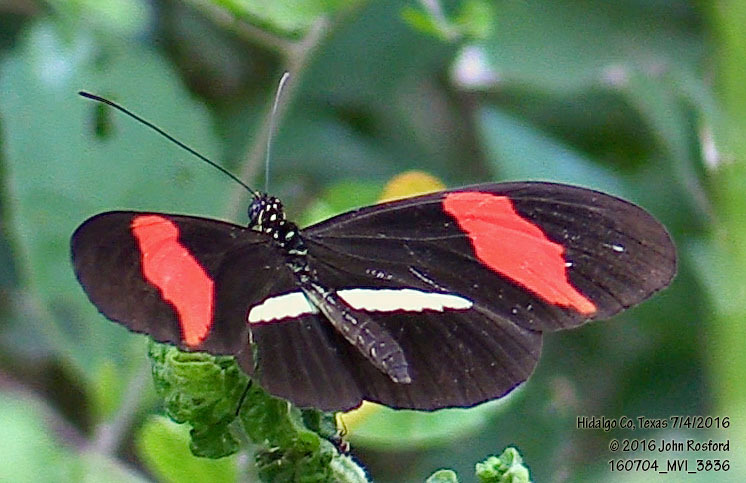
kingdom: Animalia
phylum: Arthropoda
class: Insecta
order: Lepidoptera
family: Nymphalidae
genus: Heliconius
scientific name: Heliconius erato
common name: Common patch longwing
